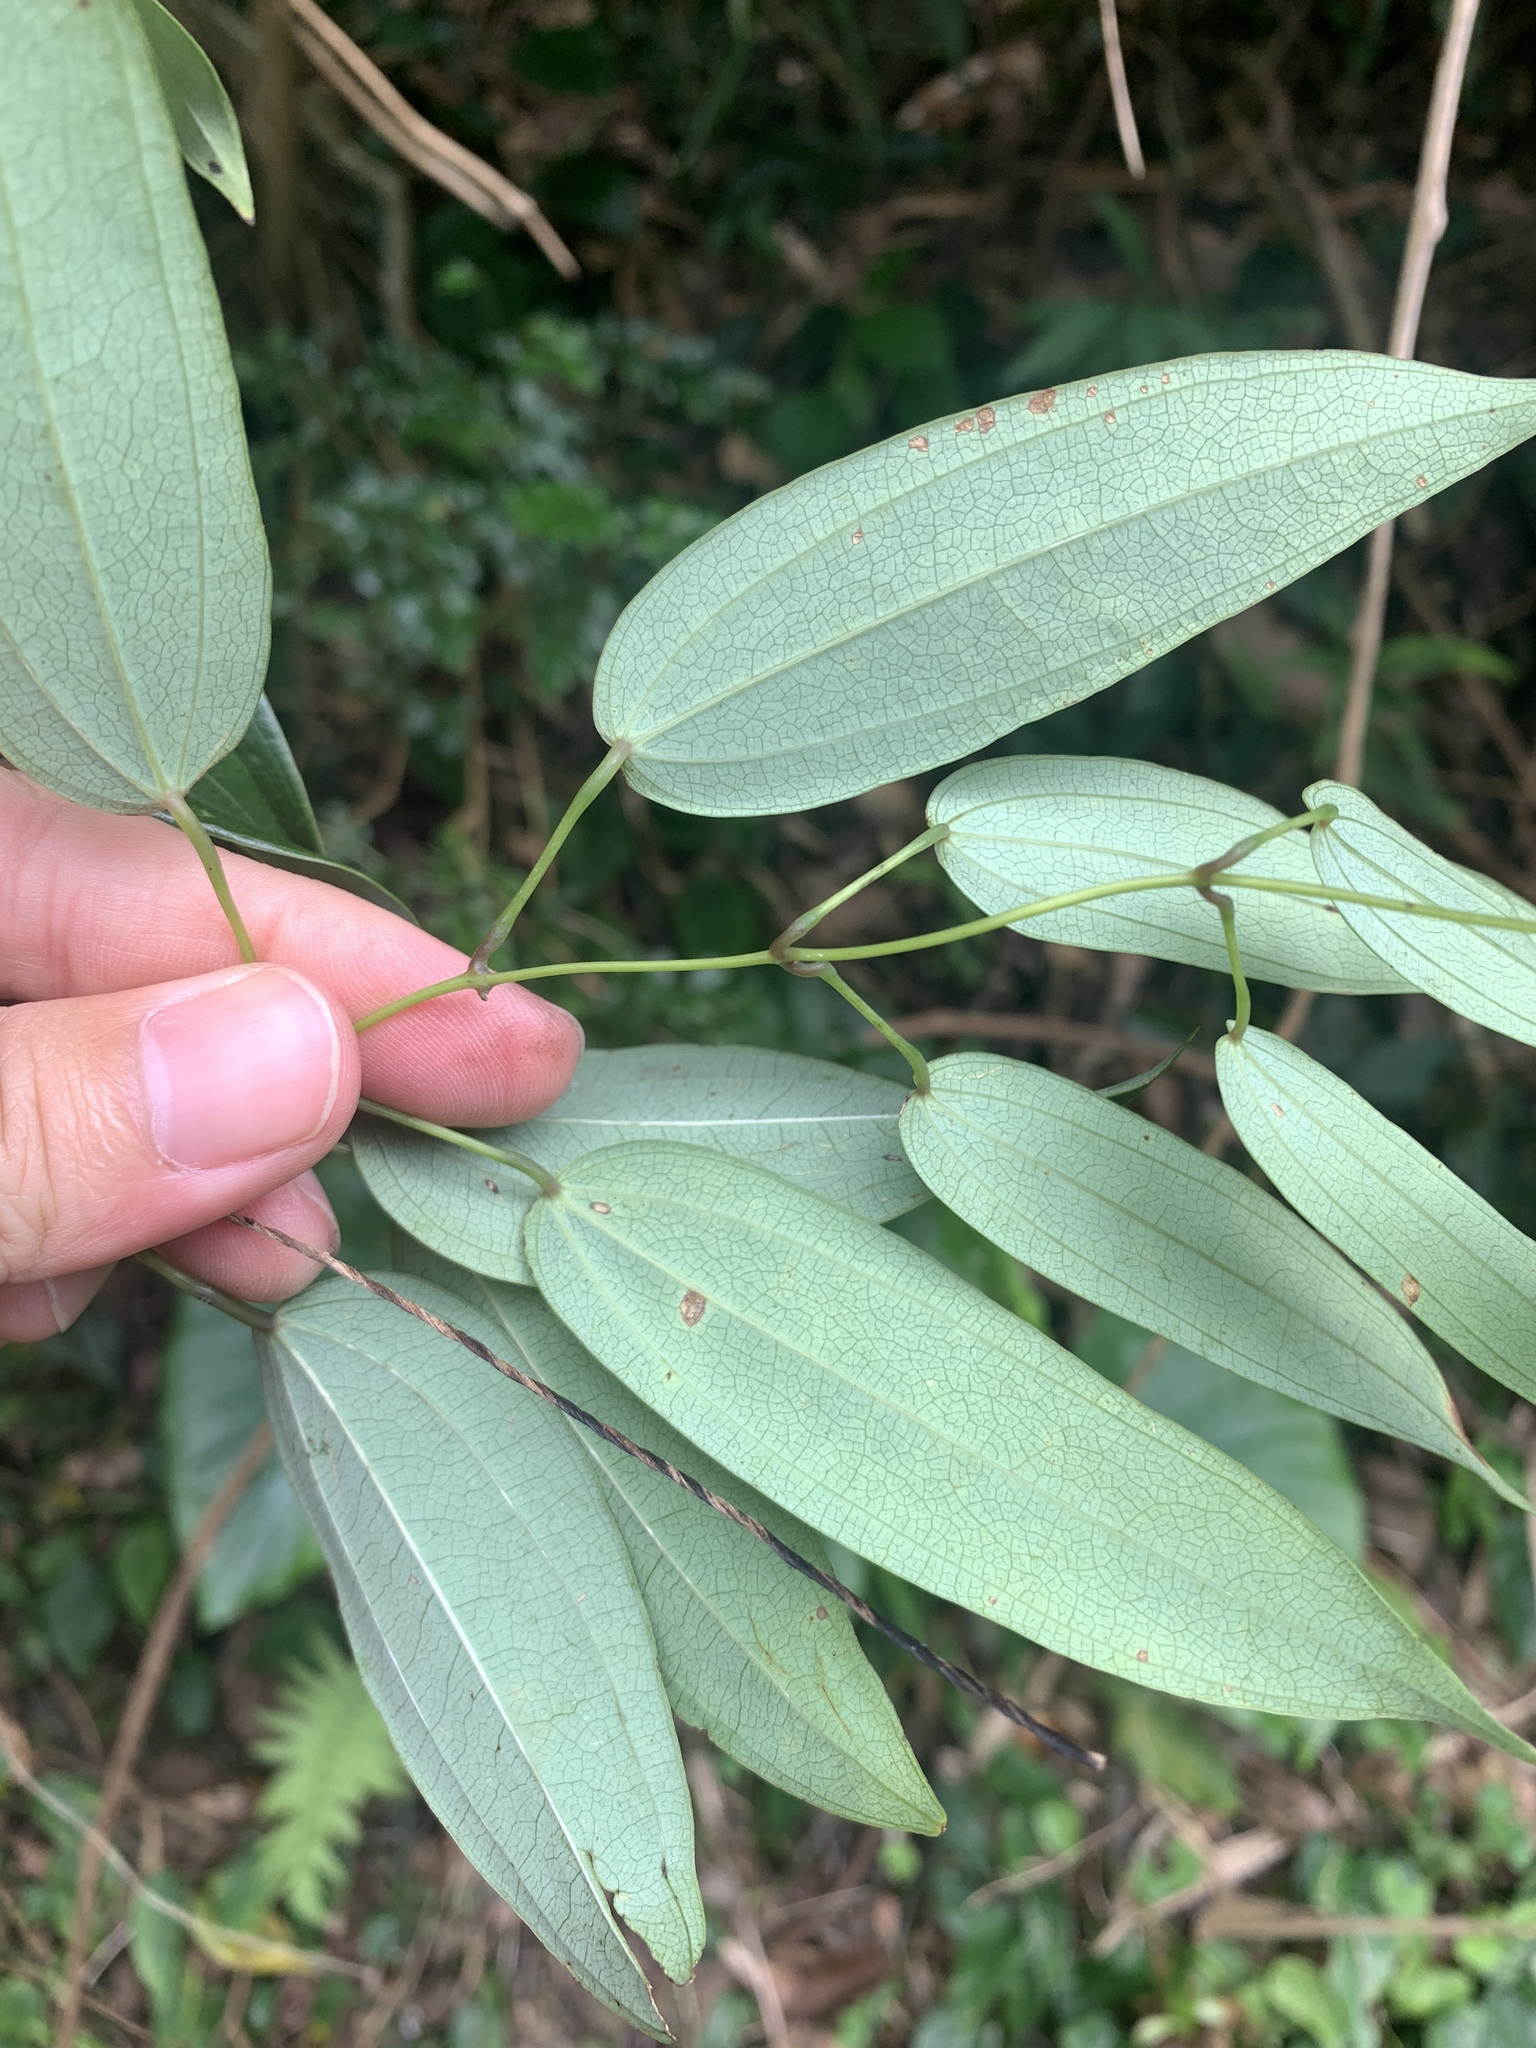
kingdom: Plantae
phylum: Tracheophyta
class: Liliopsida
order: Dioscoreales
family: Dioscoreaceae
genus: Dioscorea
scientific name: Dioscorea cirrhosa
